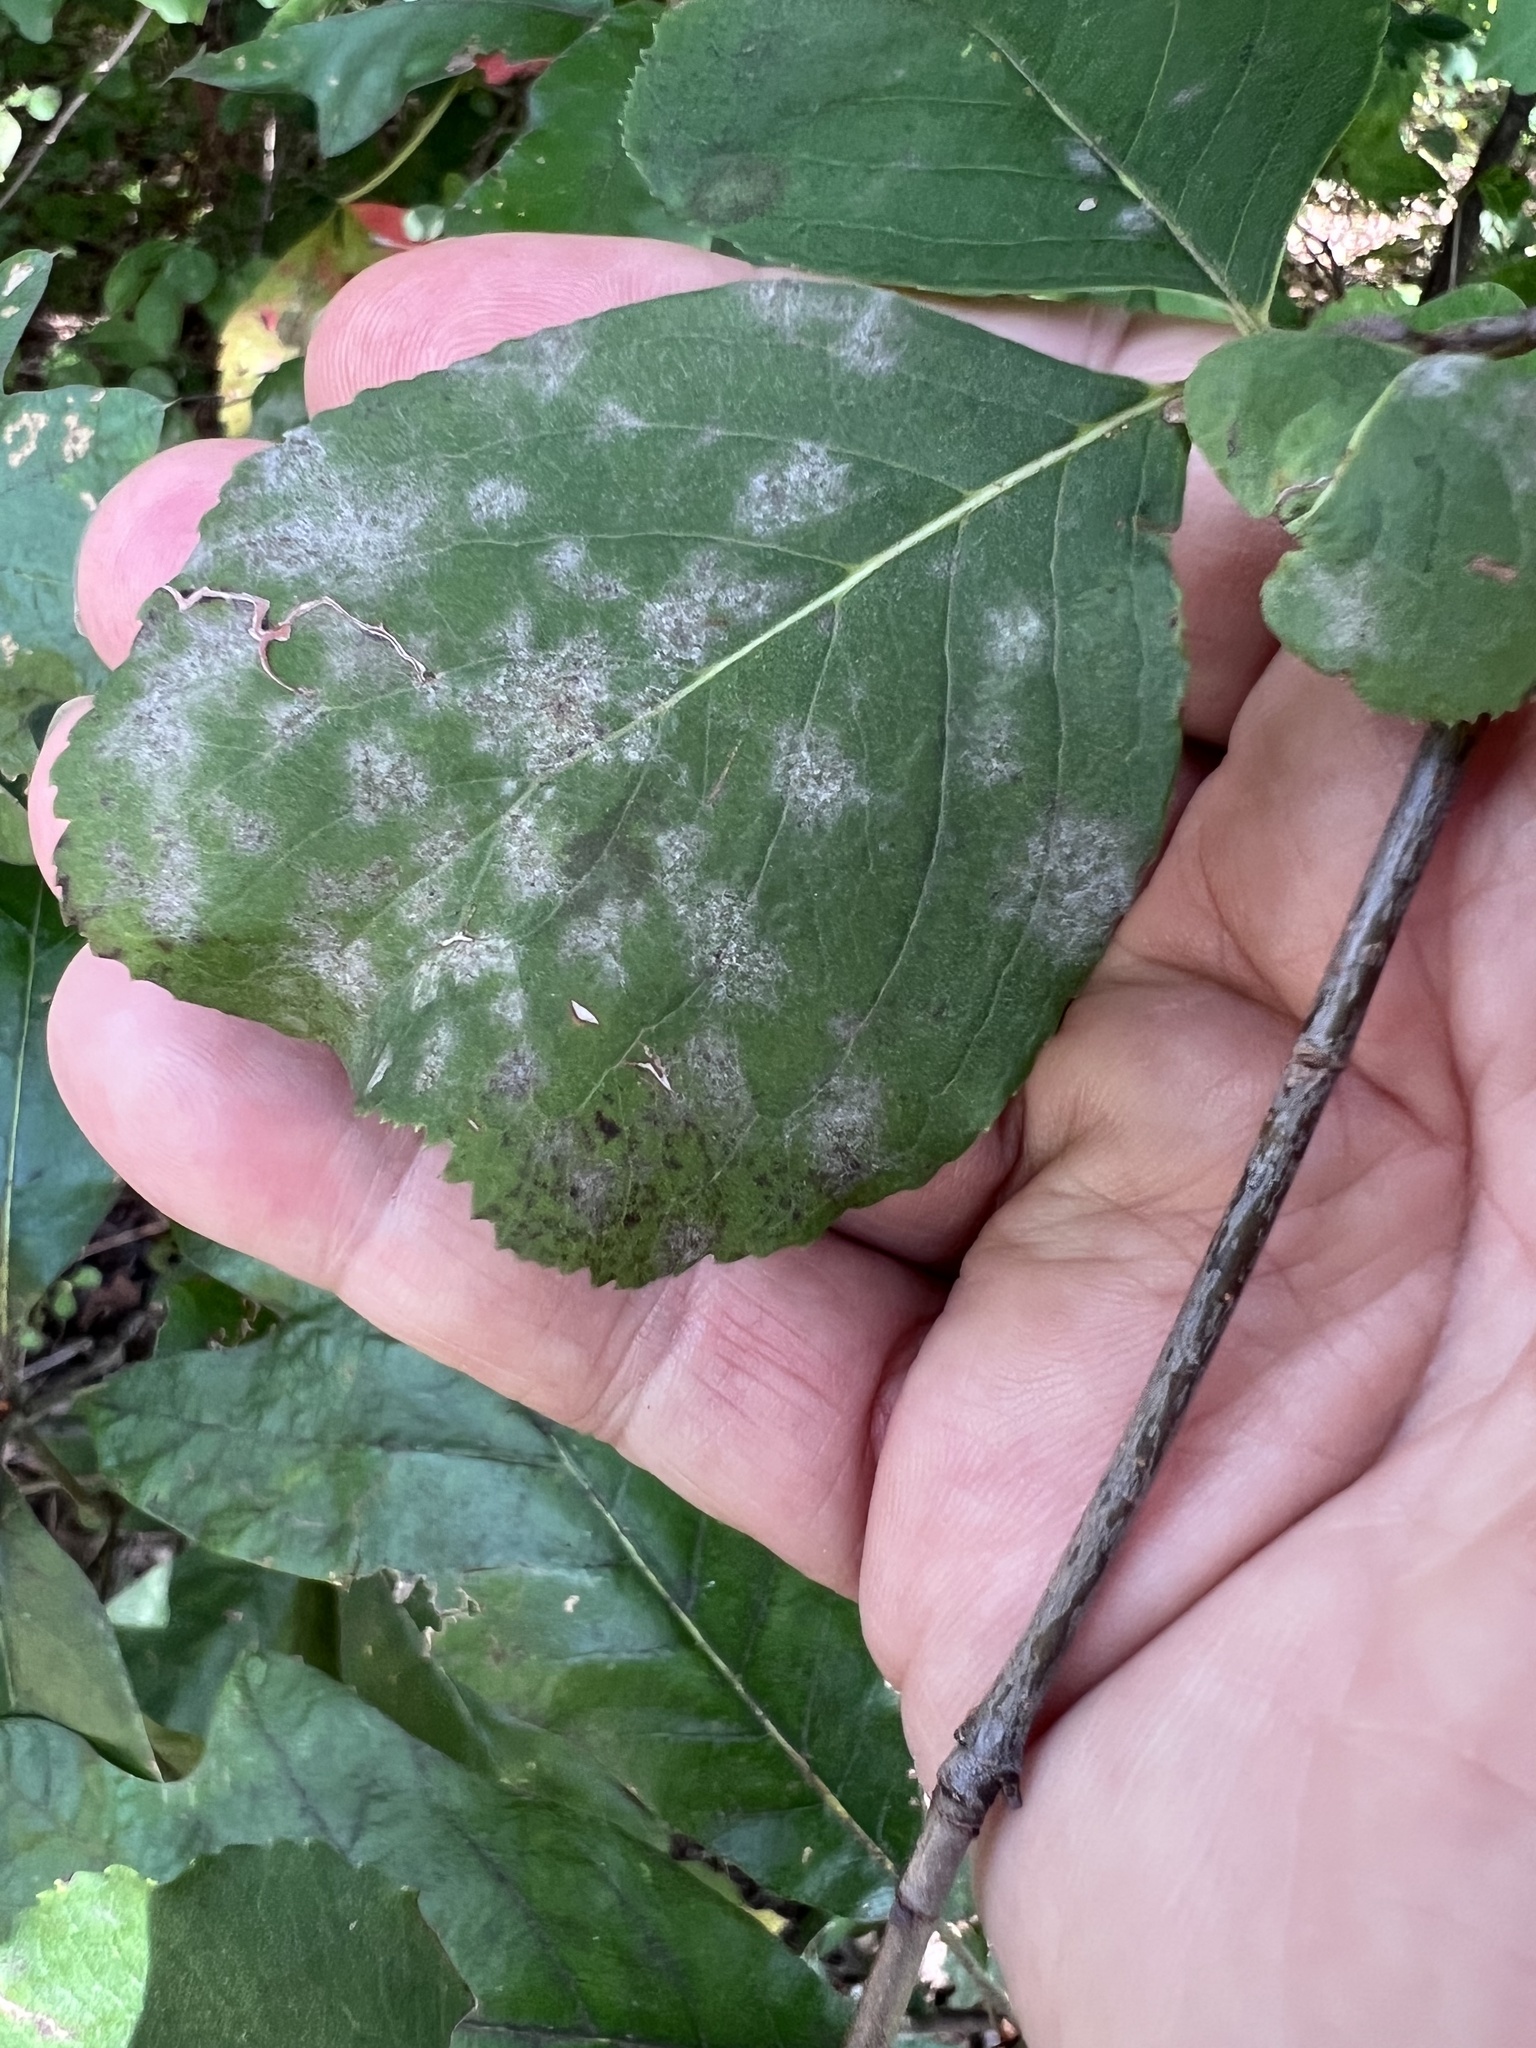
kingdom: Fungi
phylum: Ascomycota
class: Leotiomycetes
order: Helotiales
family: Erysiphaceae
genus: Erysiphe
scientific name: Erysiphe viburni
